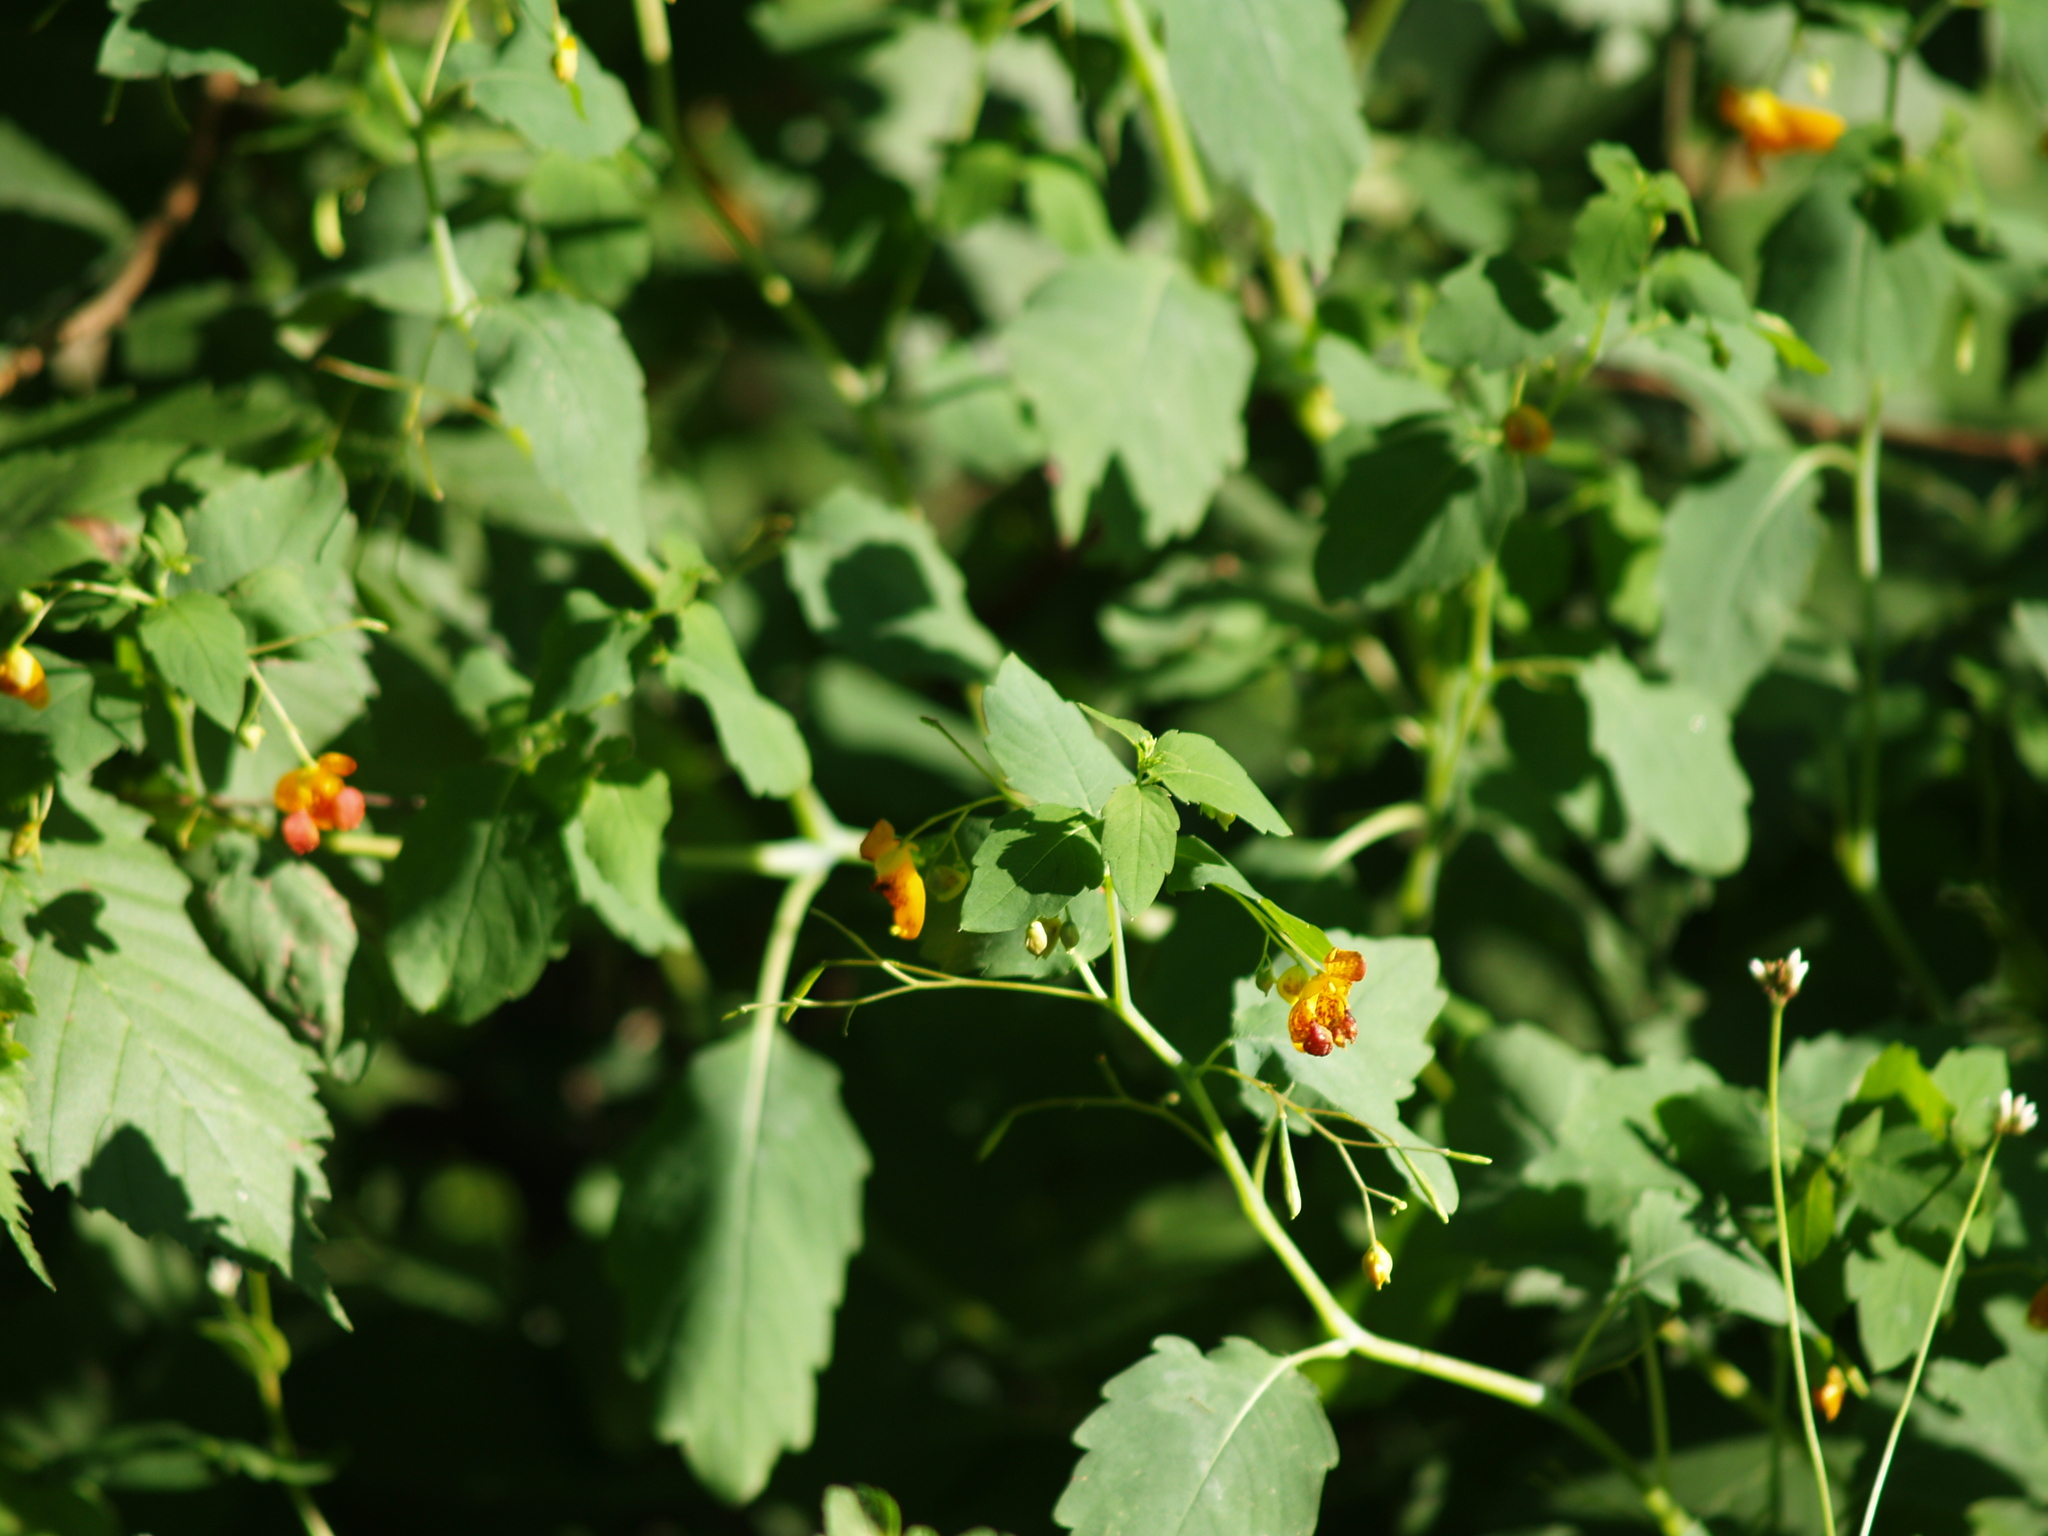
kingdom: Plantae
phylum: Tracheophyta
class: Magnoliopsida
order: Ericales
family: Balsaminaceae
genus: Impatiens
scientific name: Impatiens capensis
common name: Orange balsam
